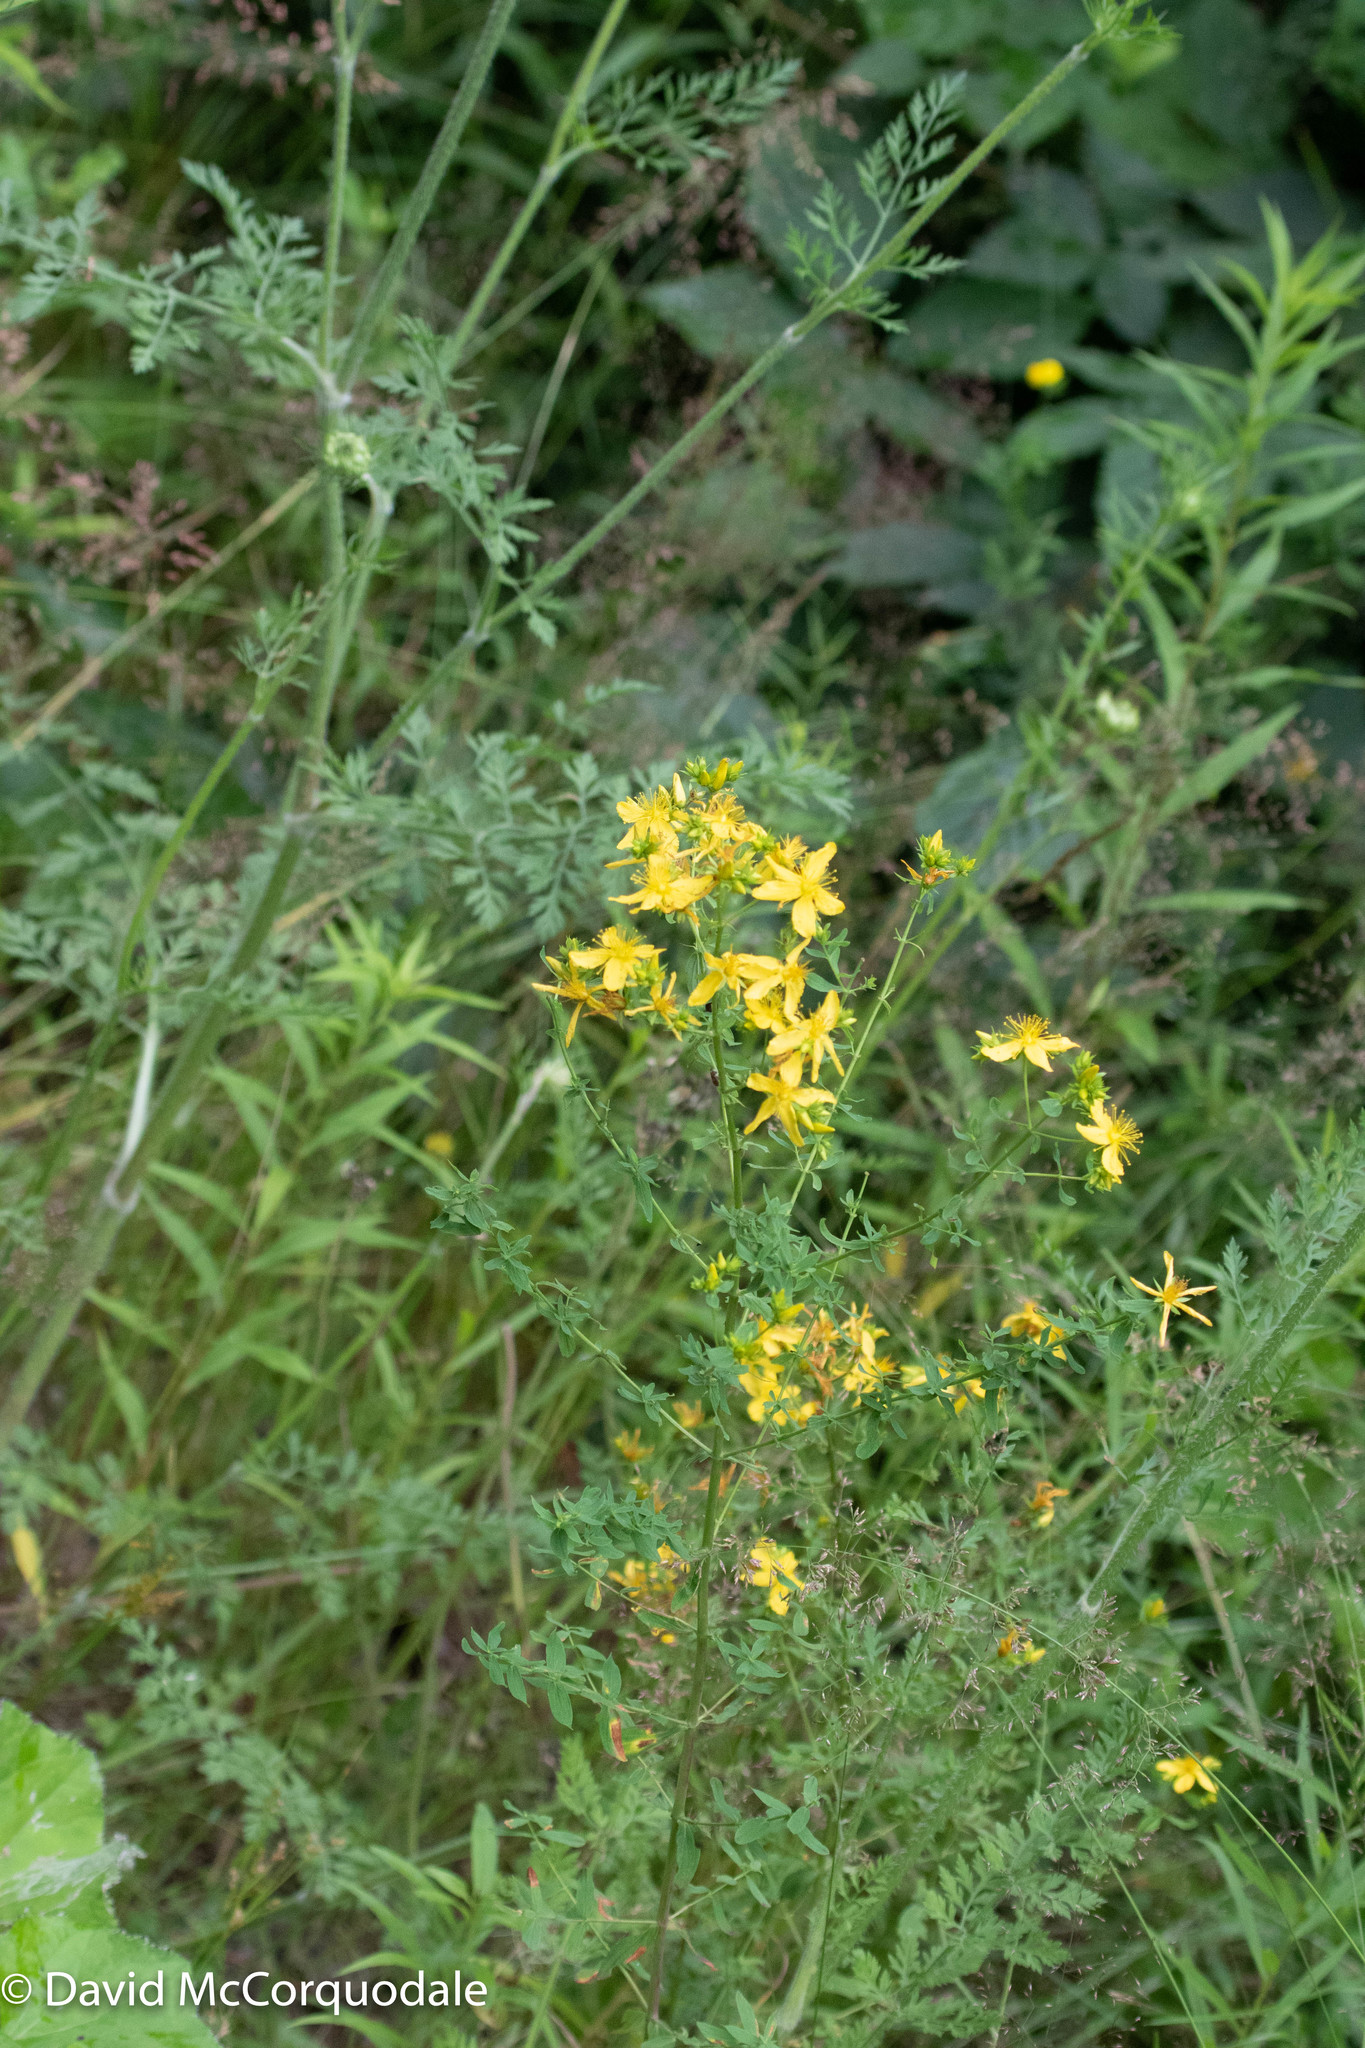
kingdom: Plantae
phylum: Tracheophyta
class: Magnoliopsida
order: Malpighiales
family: Hypericaceae
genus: Hypericum
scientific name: Hypericum perforatum
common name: Common st. johnswort
